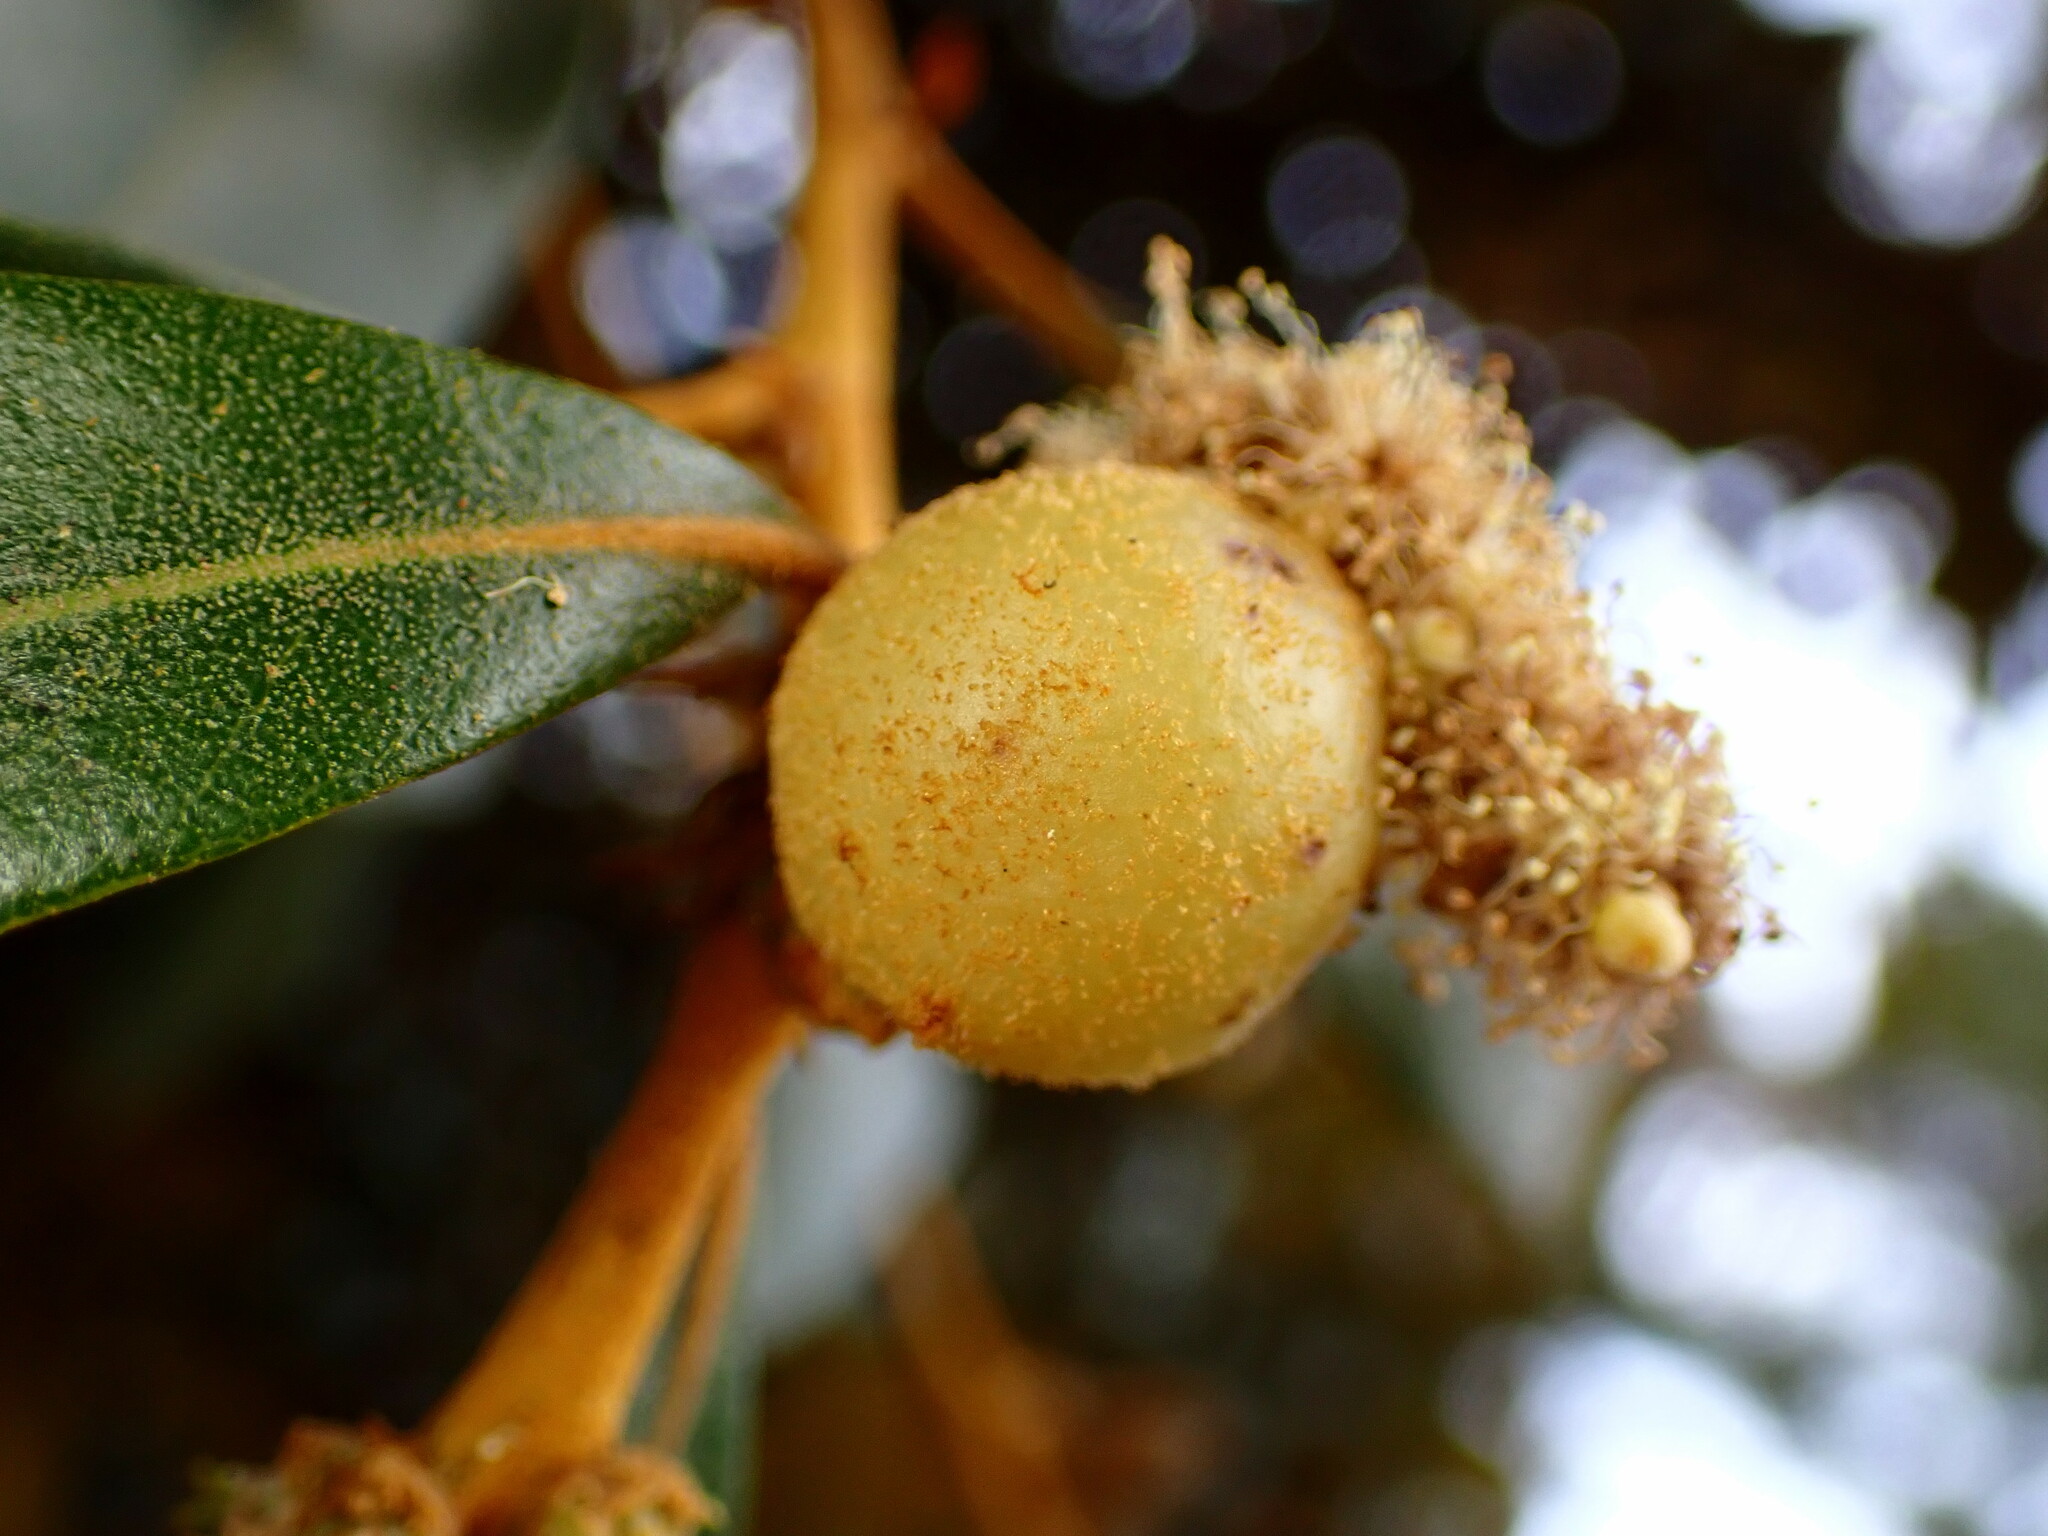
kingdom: Animalia
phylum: Arthropoda
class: Insecta
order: Hymenoptera
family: Cynipidae
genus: Synergus
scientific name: Synergus castanopsidis
